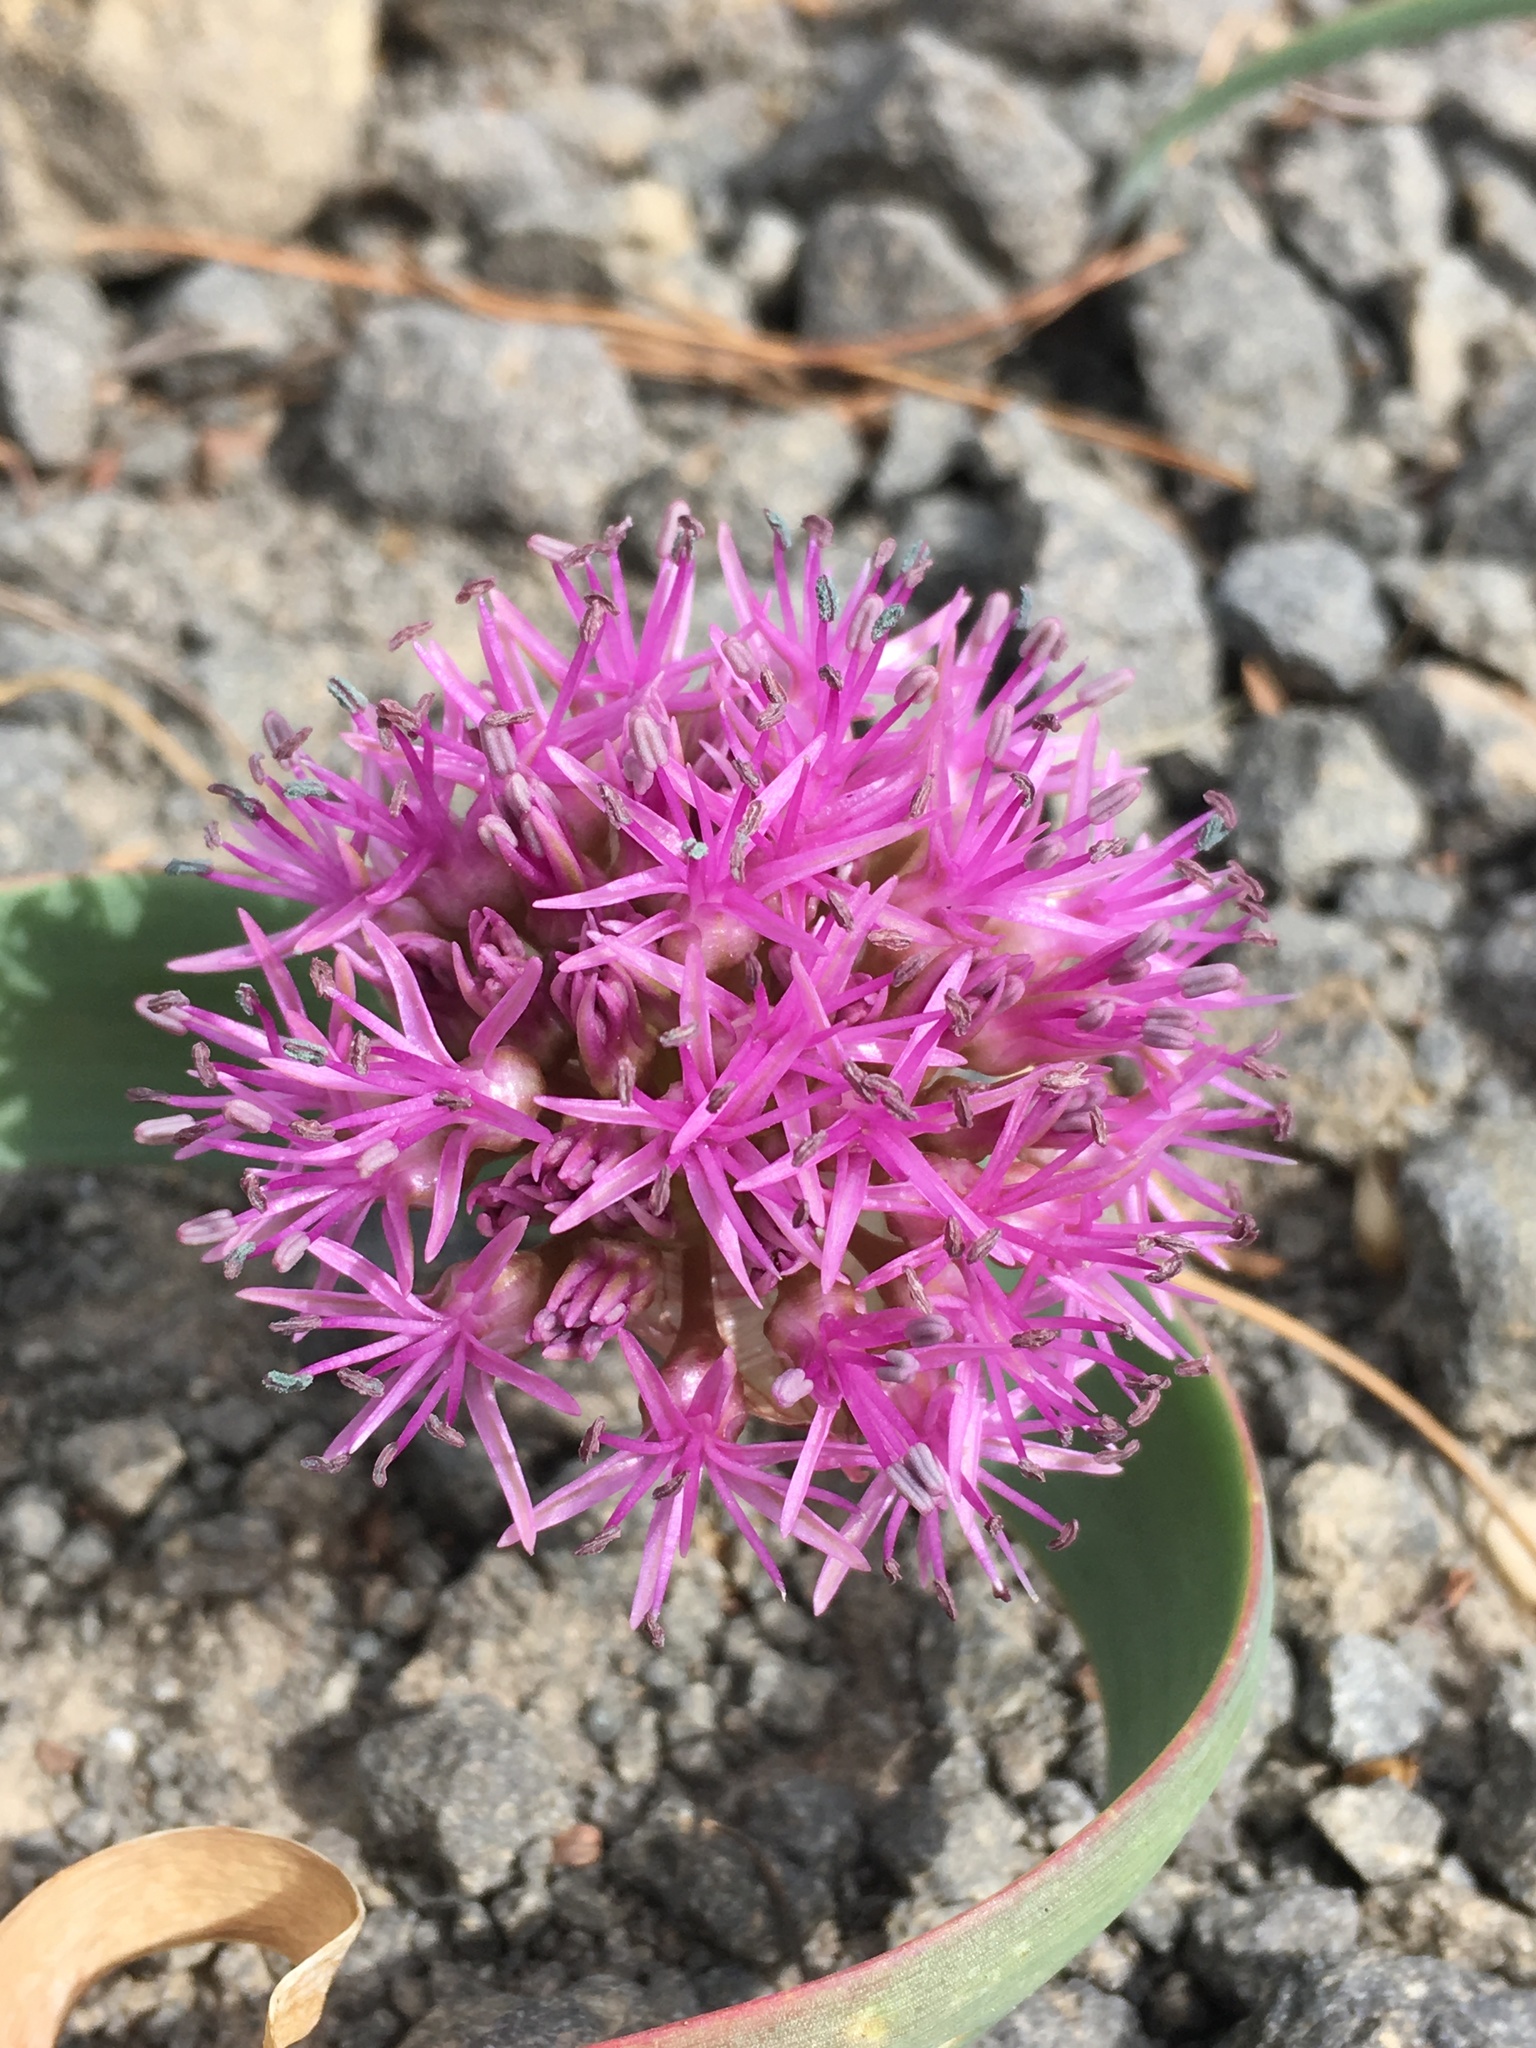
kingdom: Plantae
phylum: Tracheophyta
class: Liliopsida
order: Asparagales
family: Amaryllidaceae
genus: Allium
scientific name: Allium platycaule
